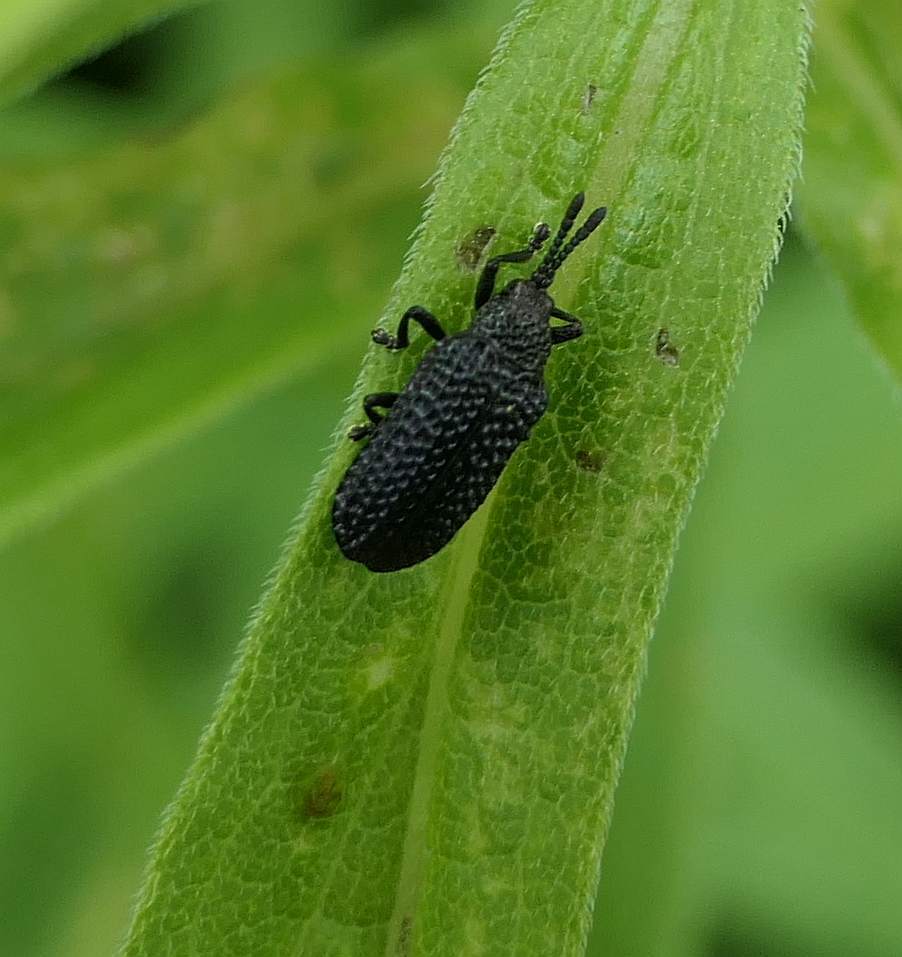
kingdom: Animalia
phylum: Arthropoda
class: Insecta
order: Coleoptera
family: Chrysomelidae
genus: Microrhopala
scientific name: Microrhopala excavata
